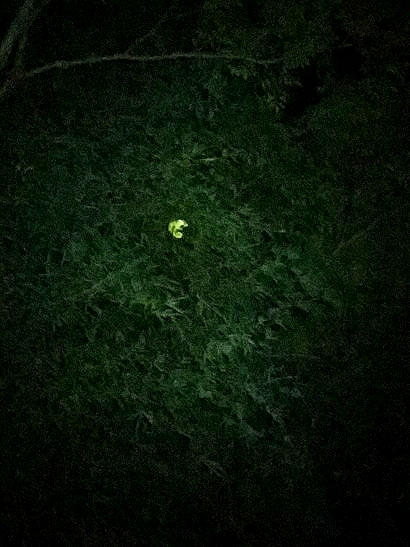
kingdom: Animalia
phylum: Chordata
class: Squamata
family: Chamaeleonidae
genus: Chamaeleo
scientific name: Chamaeleo zeylanicus
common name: Indian chameleon
